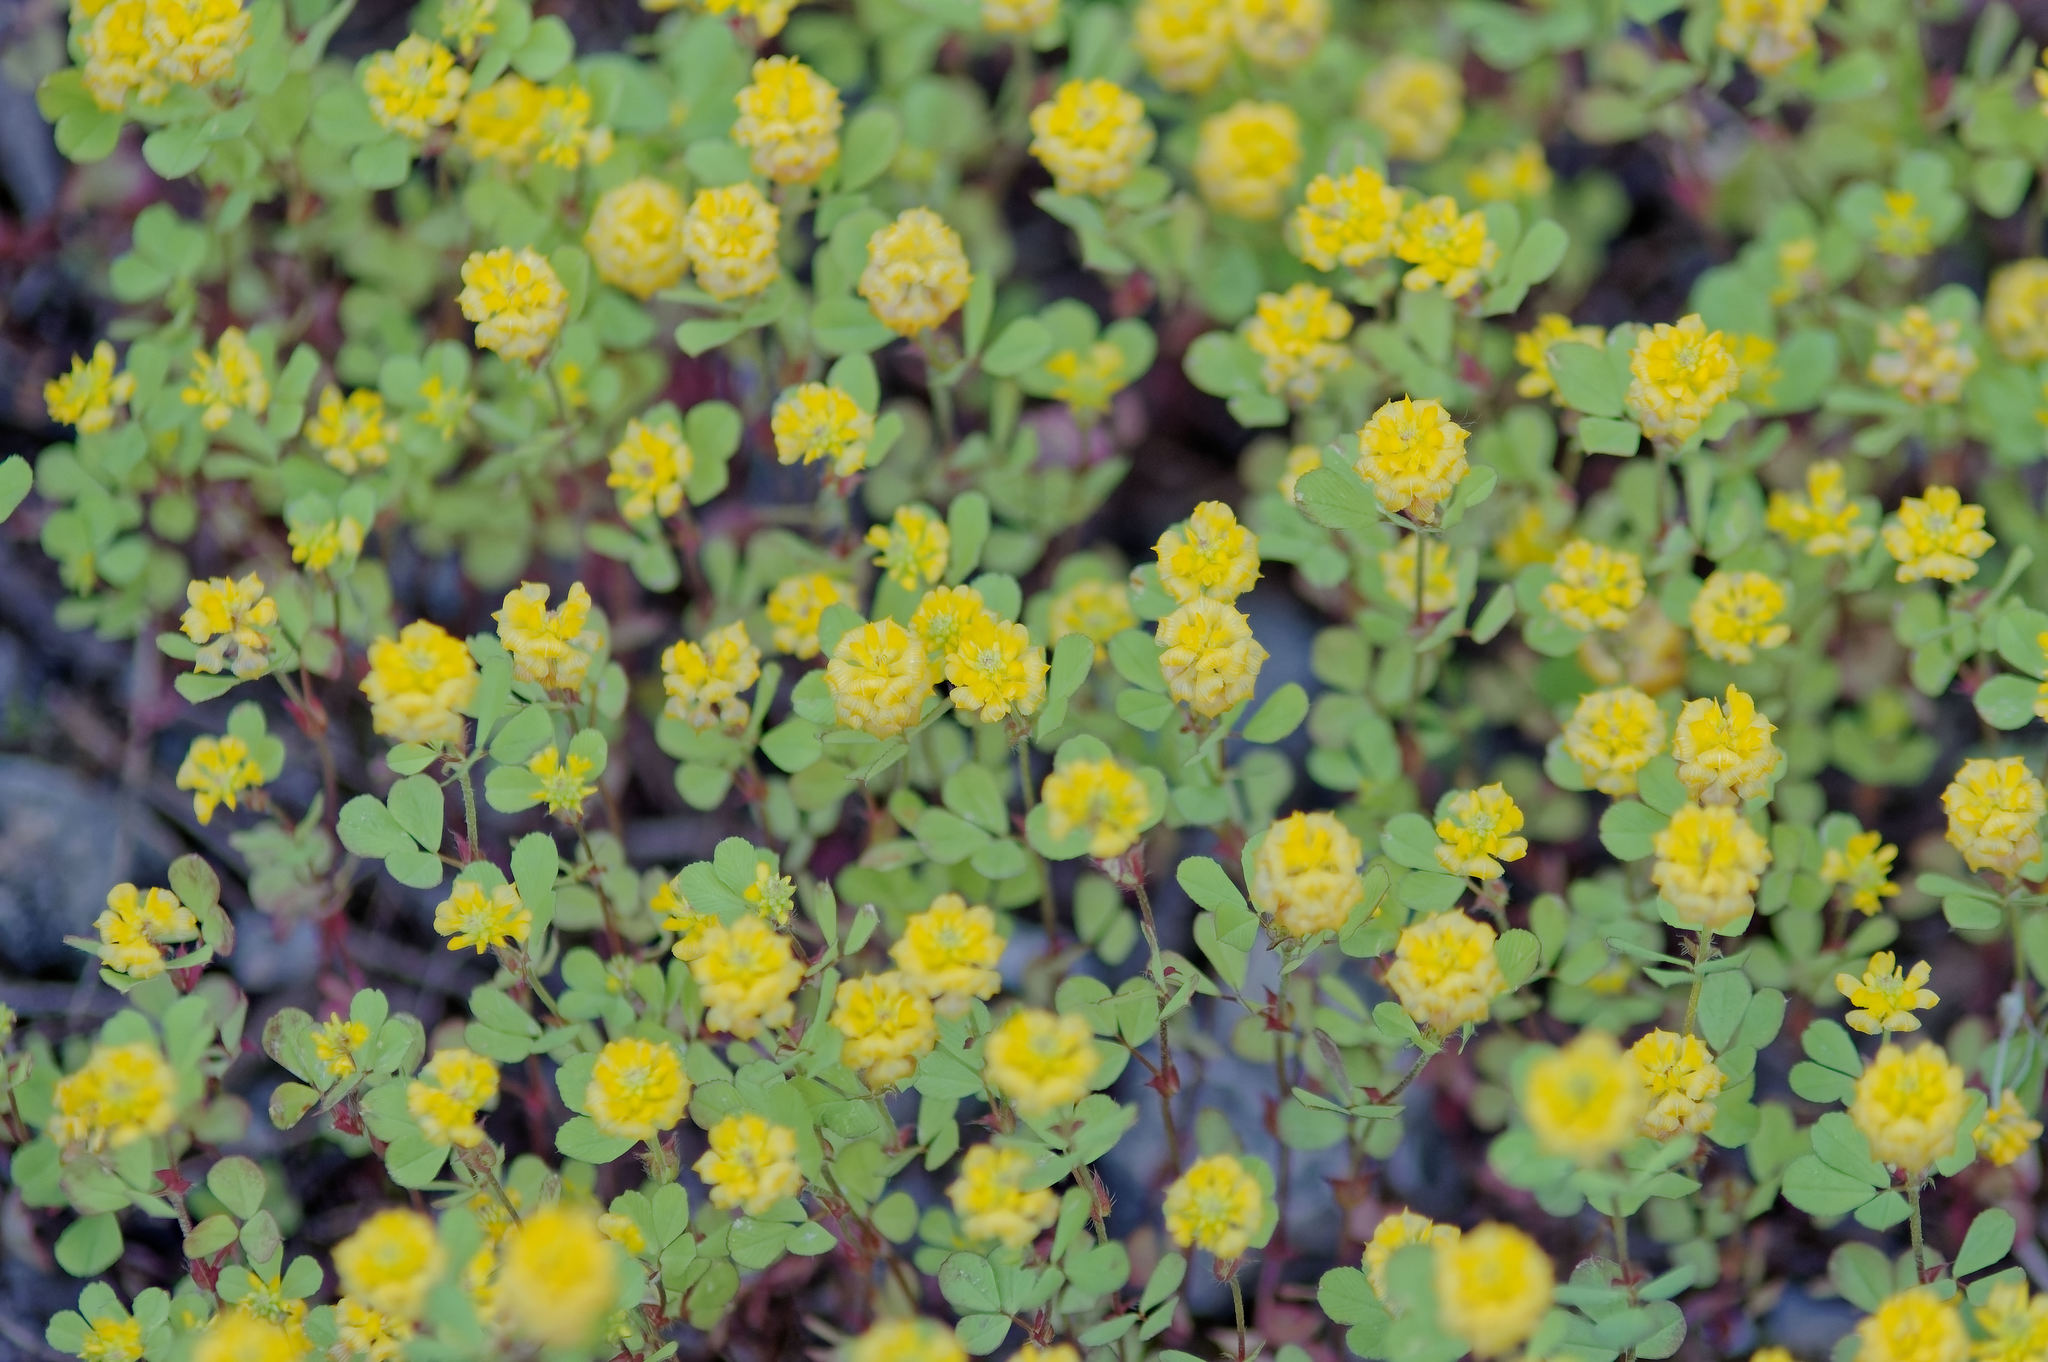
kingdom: Plantae
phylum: Tracheophyta
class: Magnoliopsida
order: Fabales
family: Fabaceae
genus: Trifolium
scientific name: Trifolium campestre
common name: Field clover
